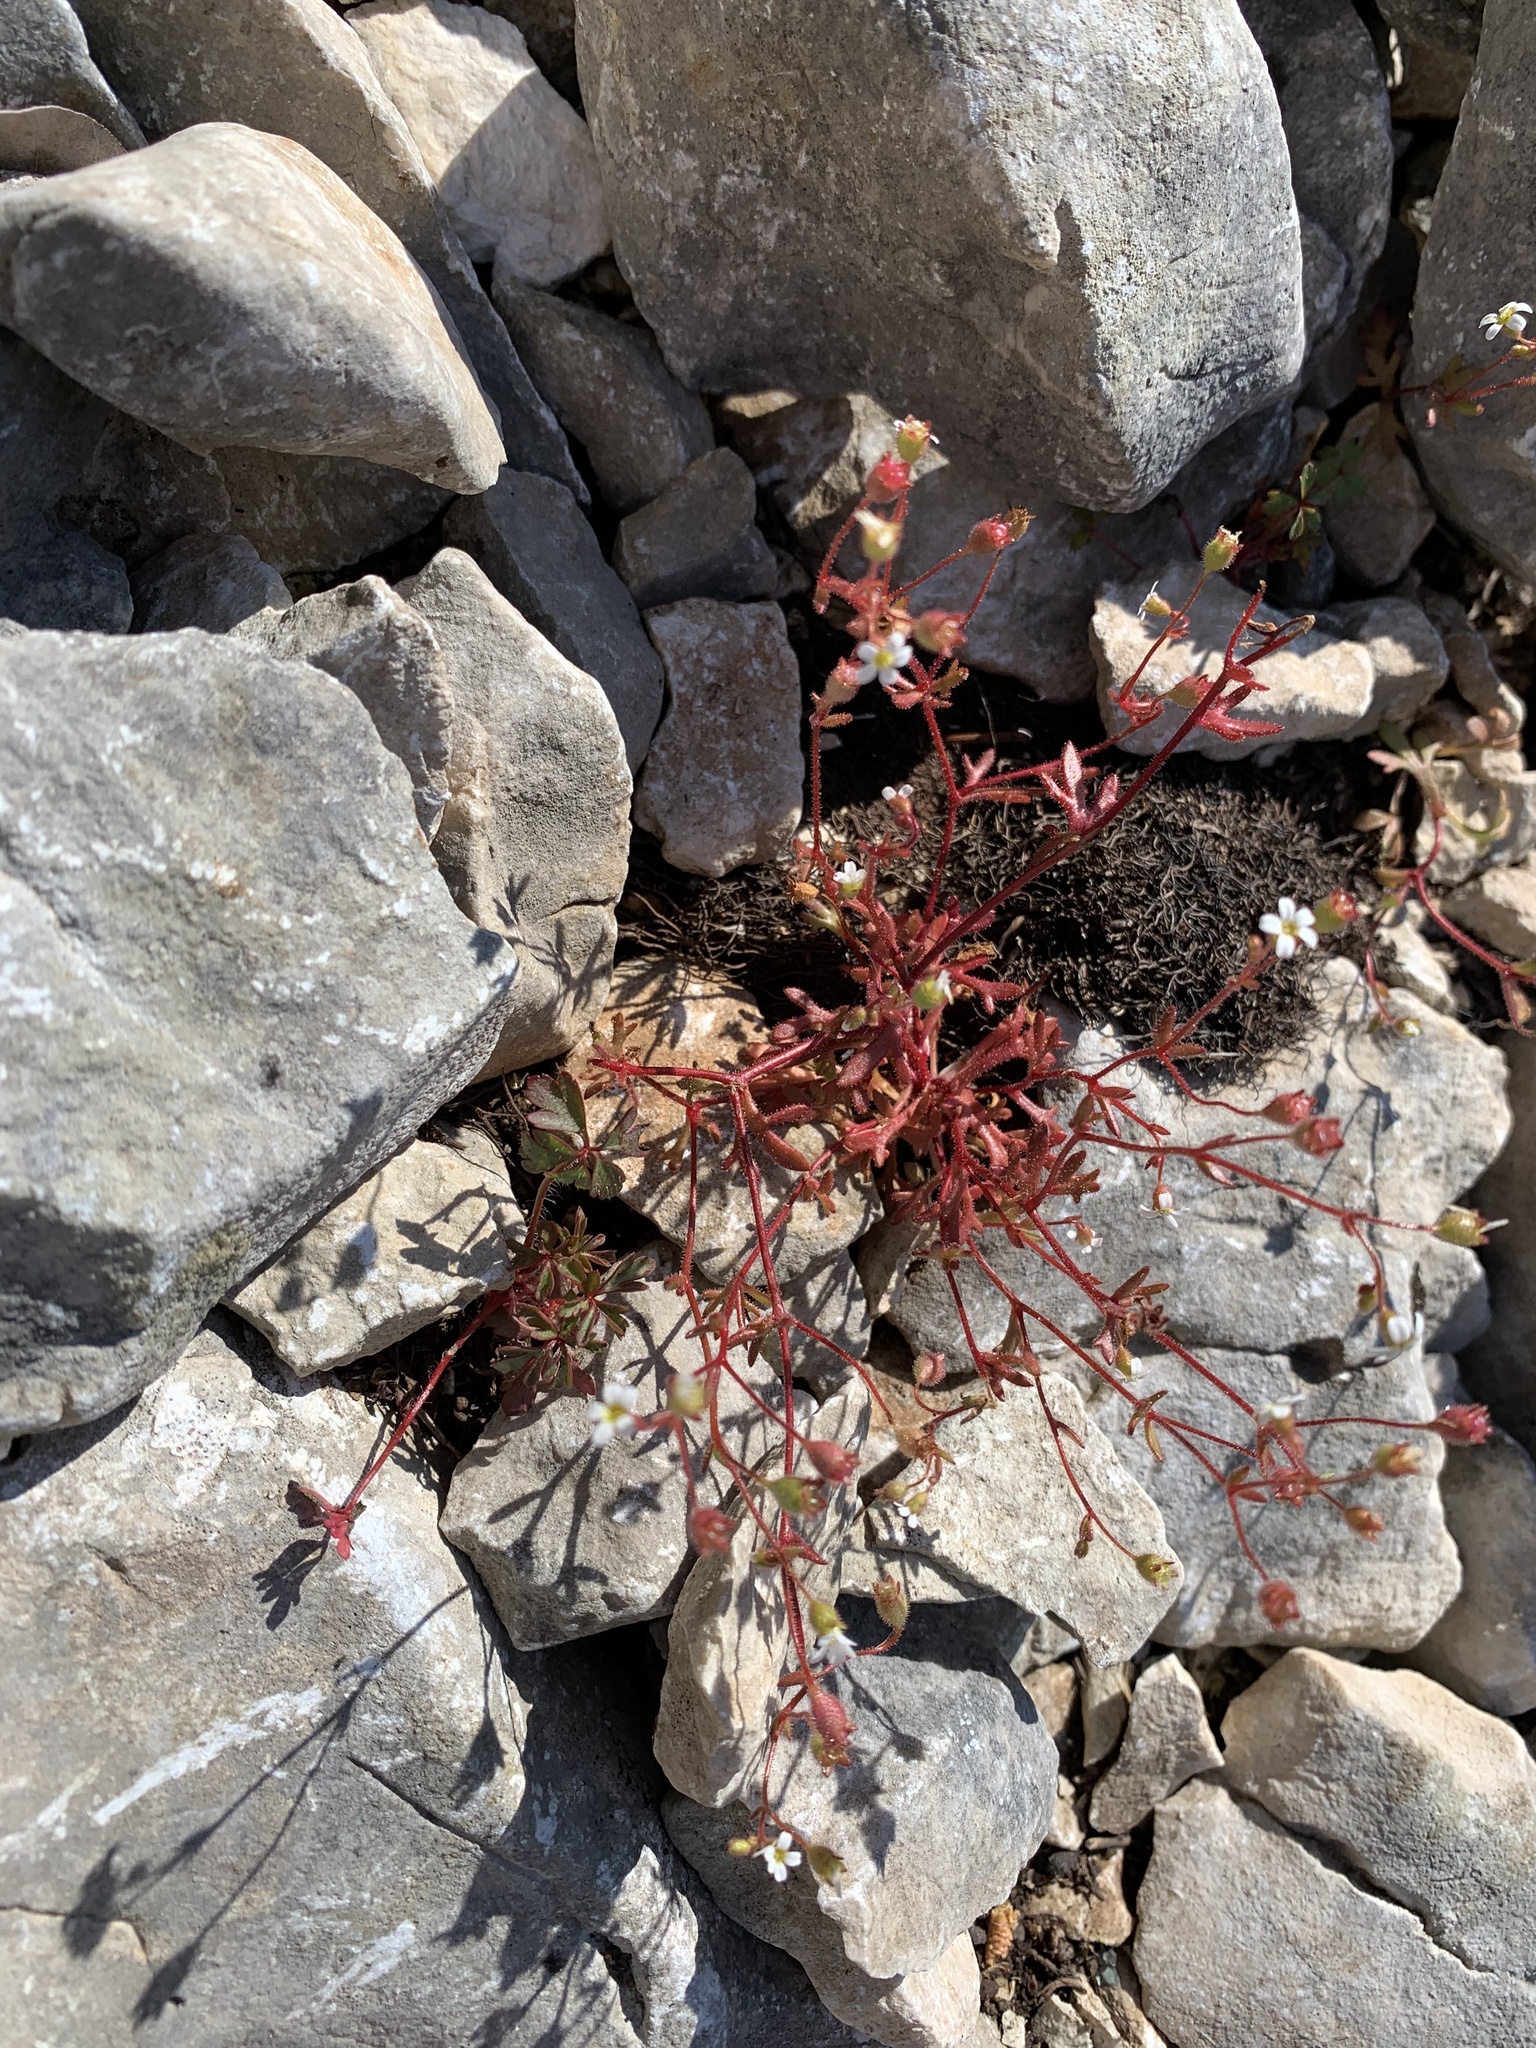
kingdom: Plantae
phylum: Tracheophyta
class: Magnoliopsida
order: Saxifragales
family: Saxifragaceae
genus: Saxifraga
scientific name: Saxifraga tridactylites
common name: Rue-leaved saxifrage
